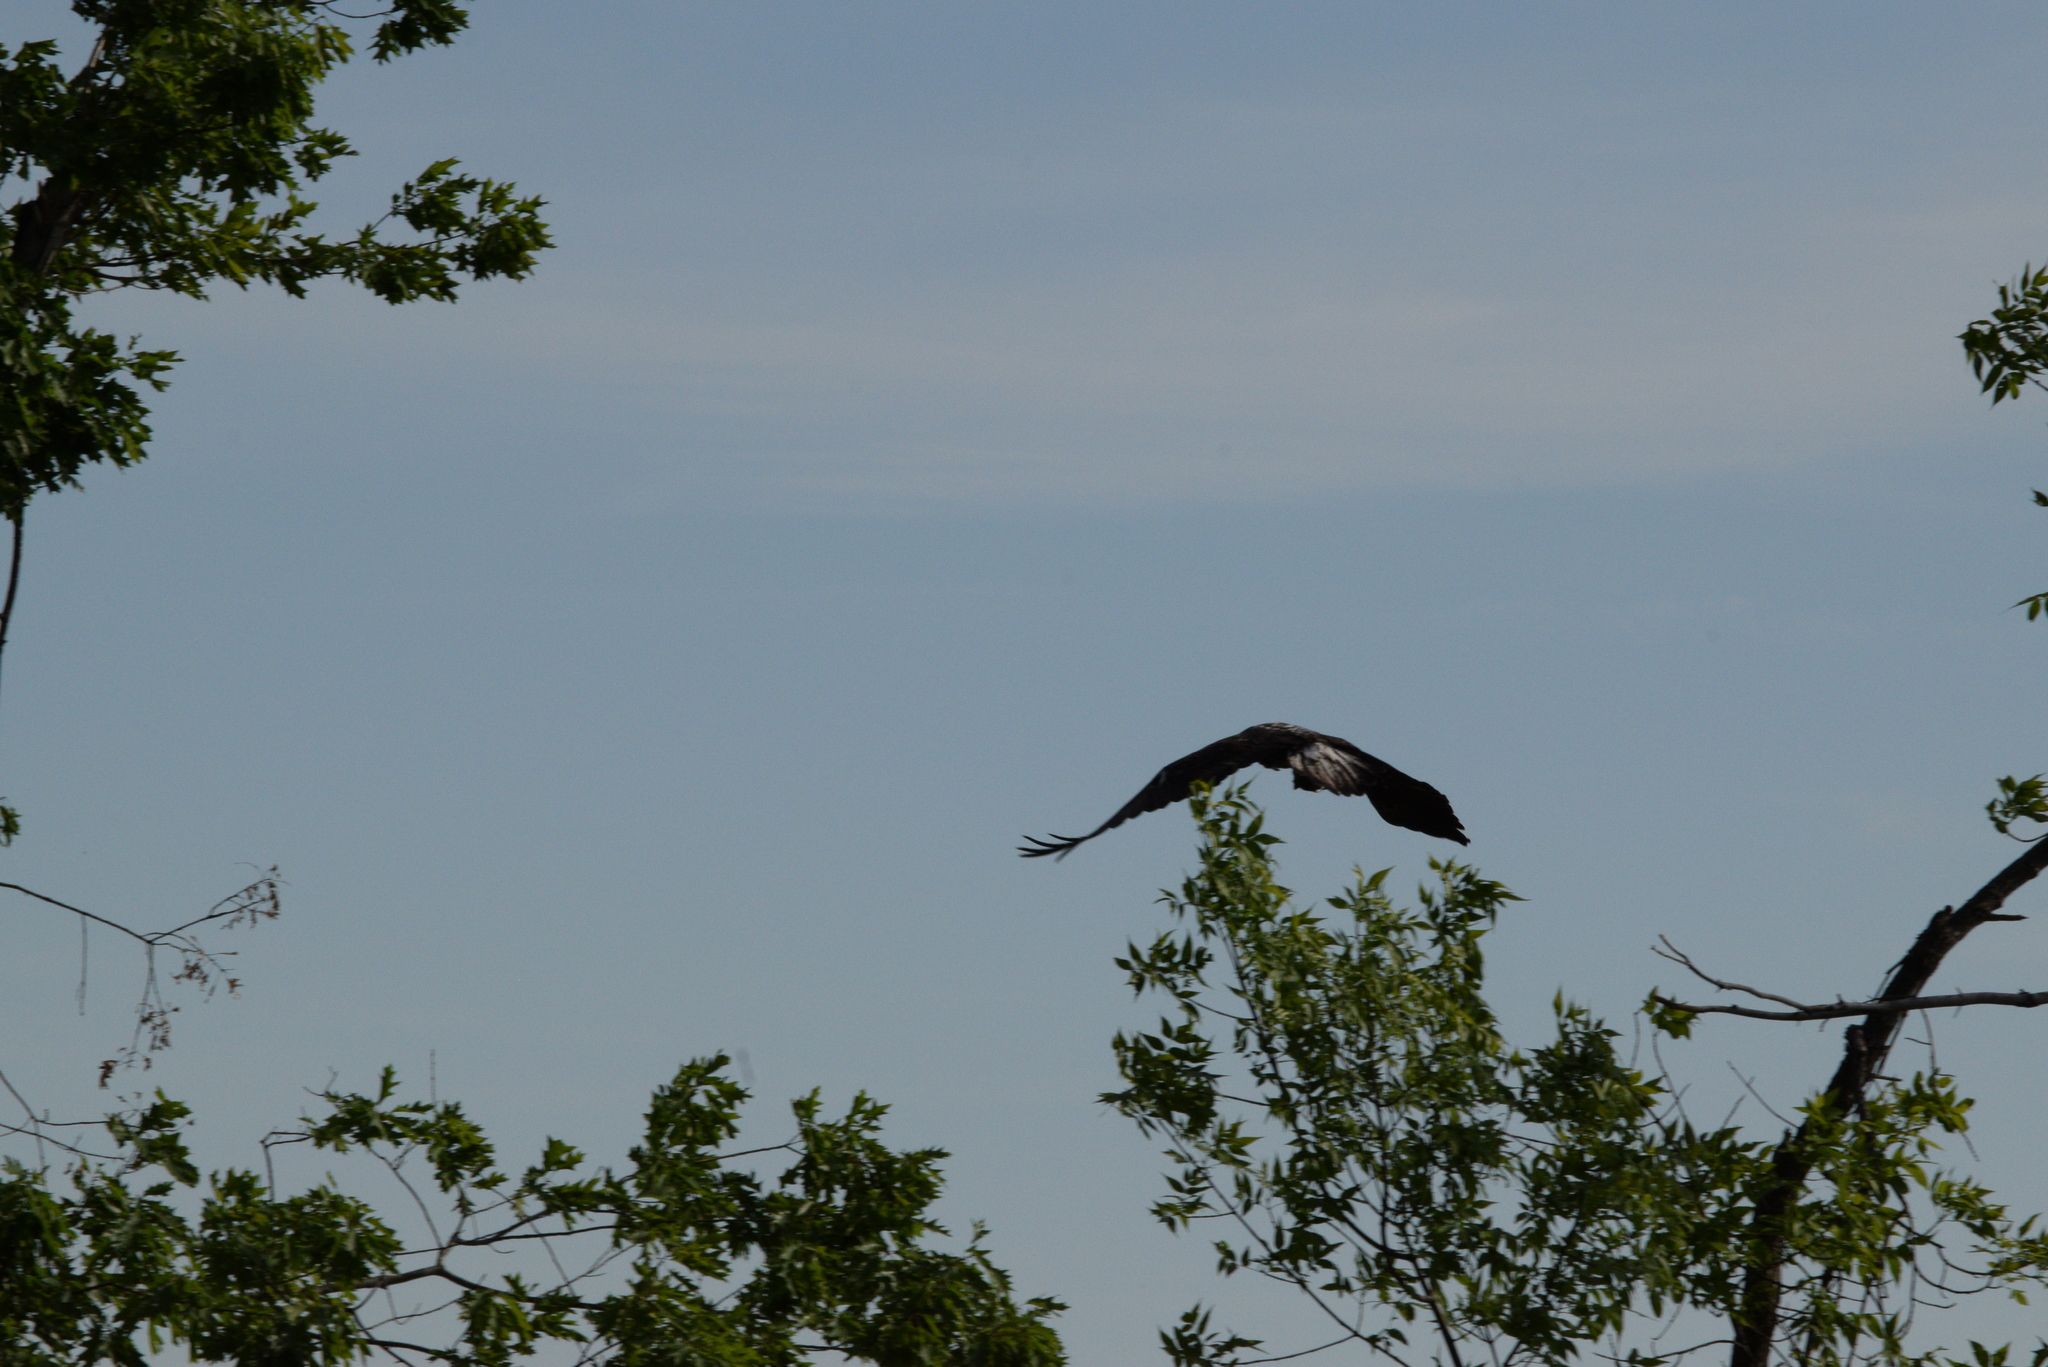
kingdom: Animalia
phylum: Chordata
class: Aves
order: Accipitriformes
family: Accipitridae
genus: Haliaeetus
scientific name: Haliaeetus leucocephalus
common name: Bald eagle
